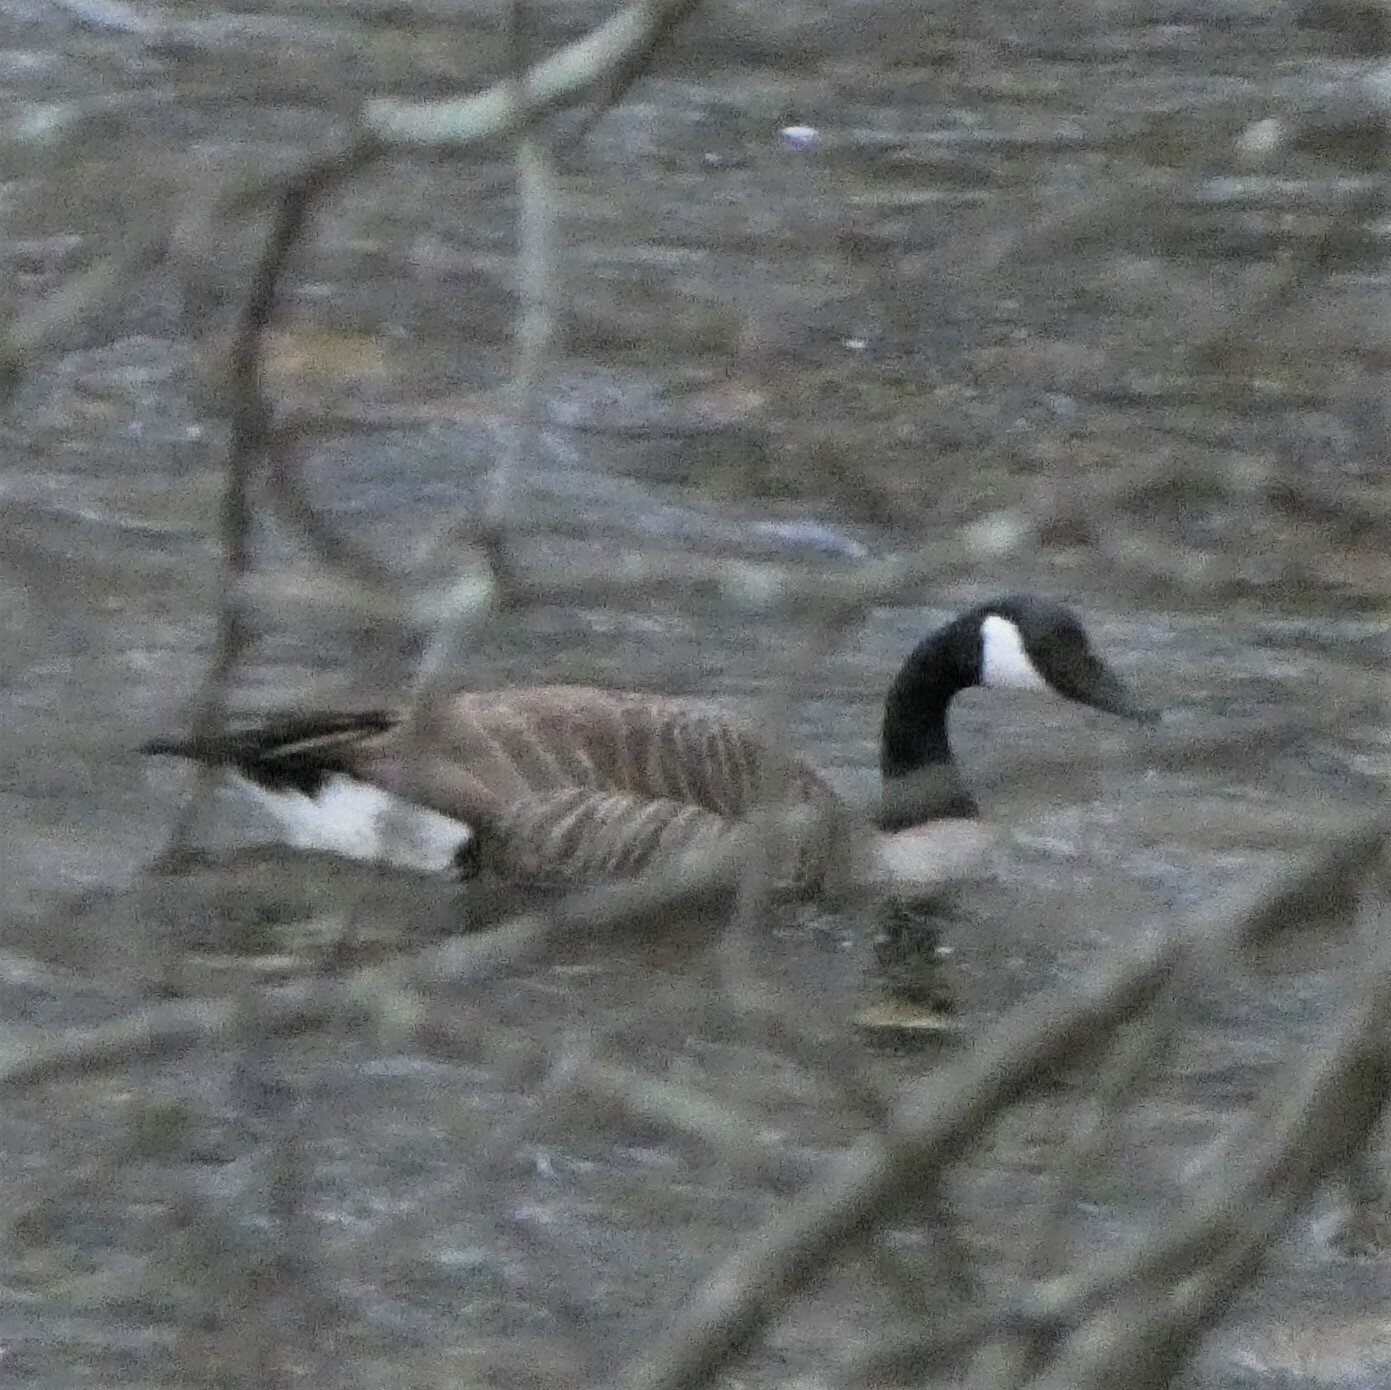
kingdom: Animalia
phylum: Chordata
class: Aves
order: Anseriformes
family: Anatidae
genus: Branta
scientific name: Branta canadensis
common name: Canada goose
